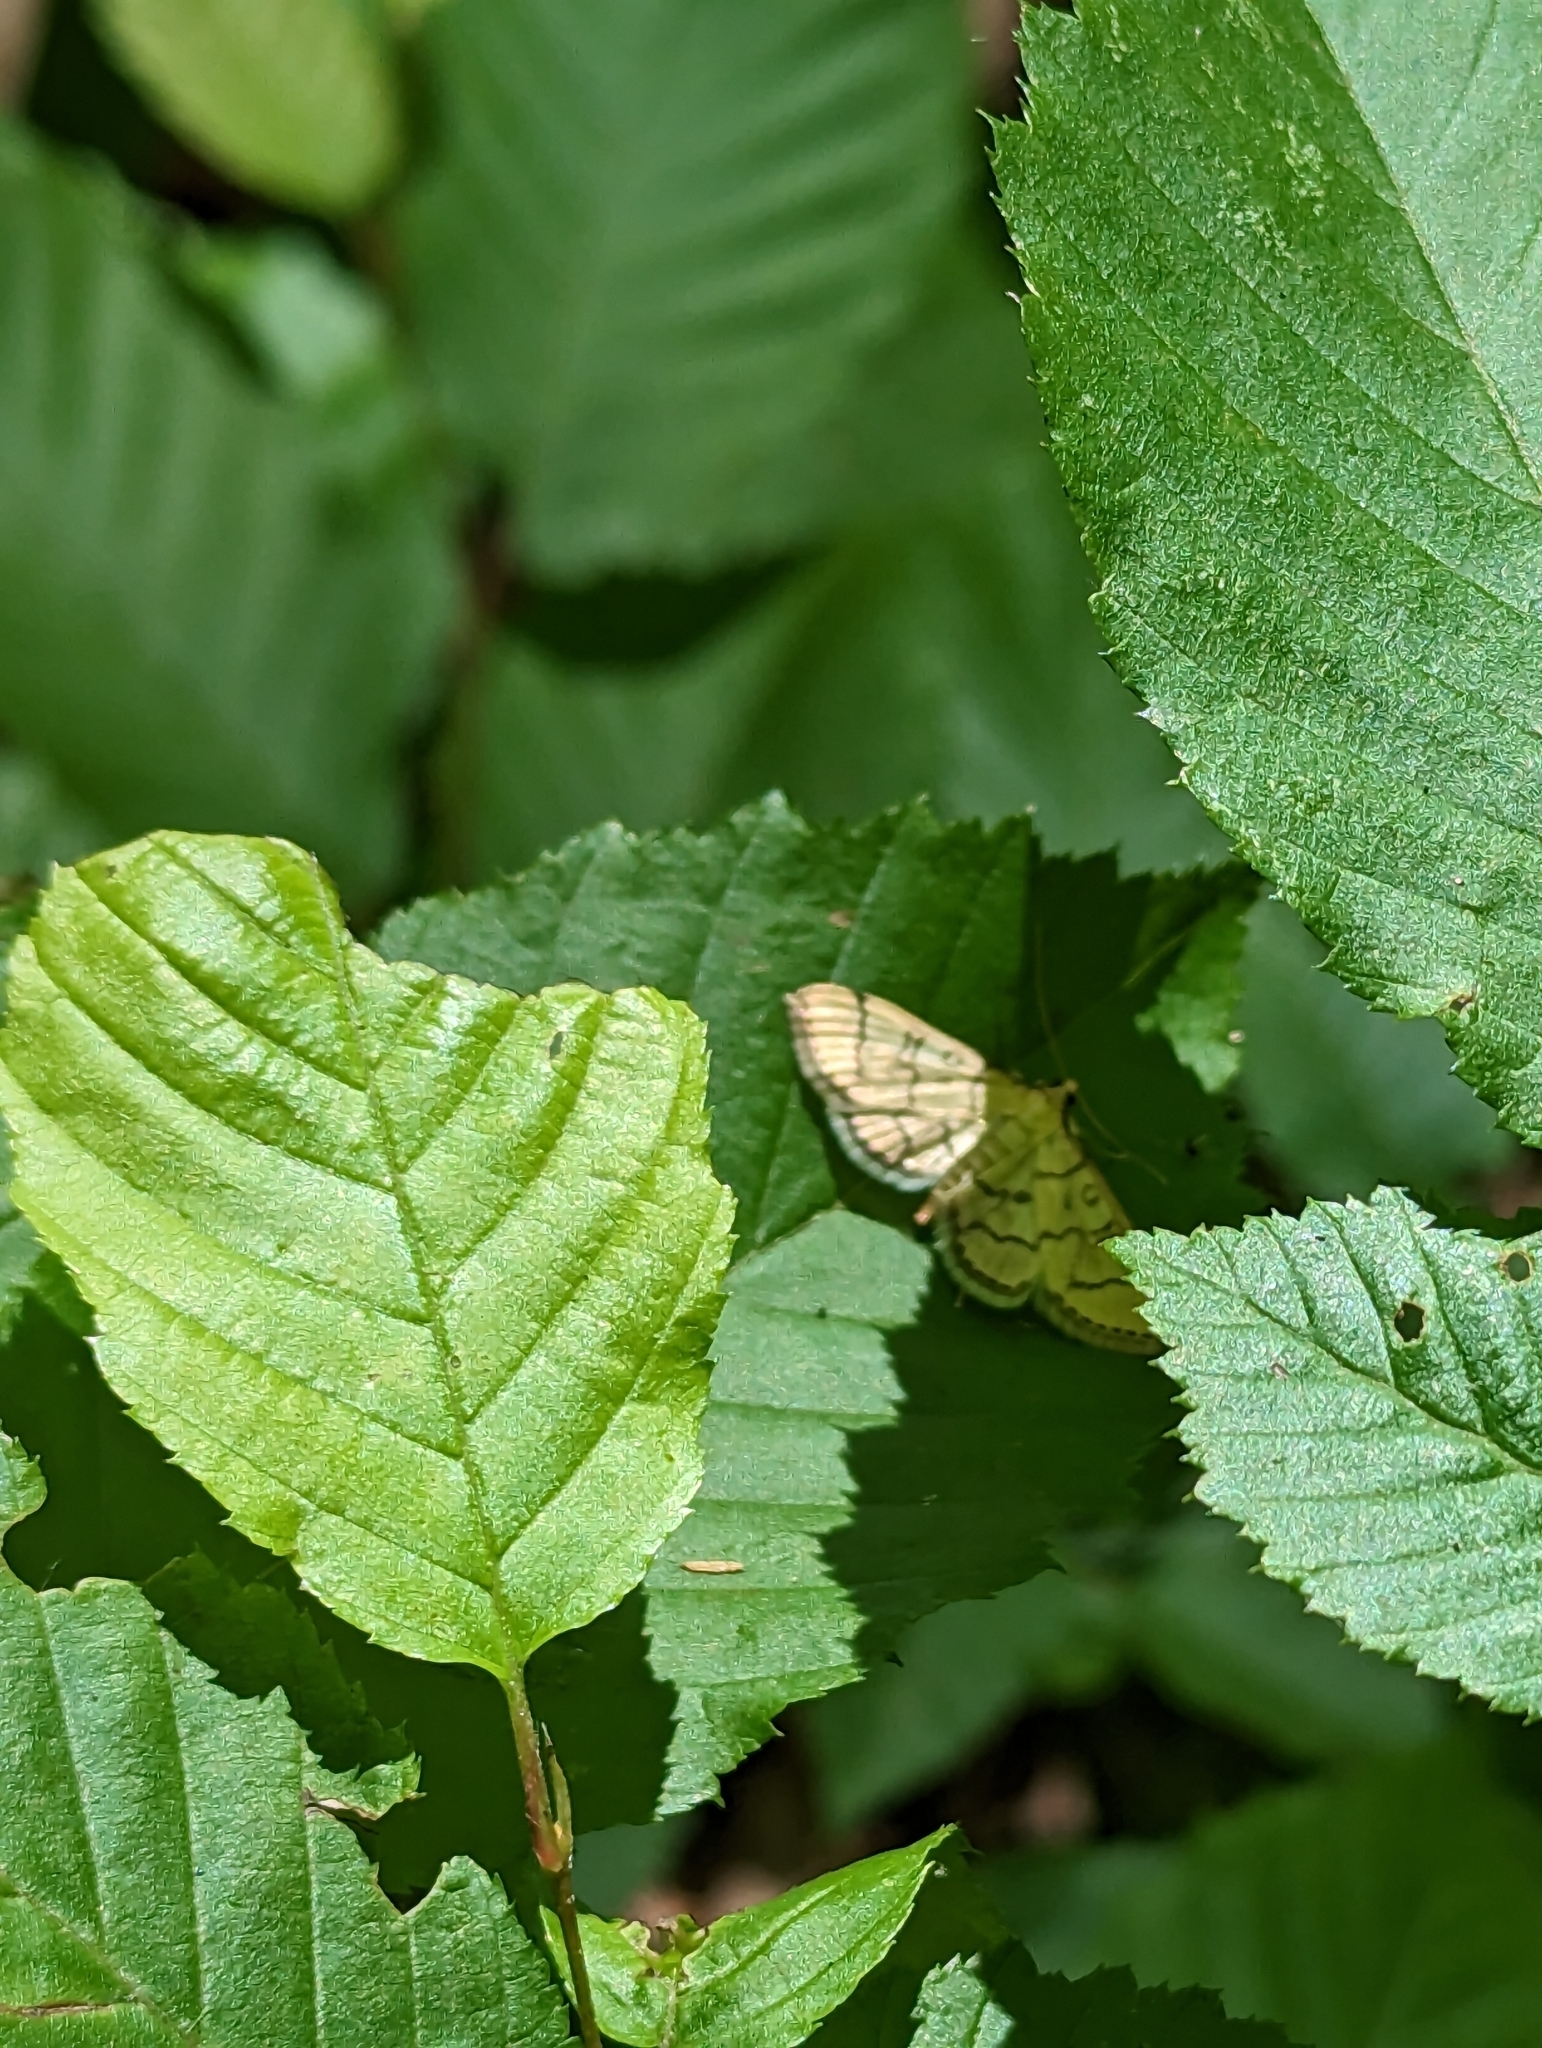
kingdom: Animalia
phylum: Arthropoda
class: Insecta
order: Lepidoptera
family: Crambidae
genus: Lamprosema
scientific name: Lamprosema Blepharomastix ranalis
